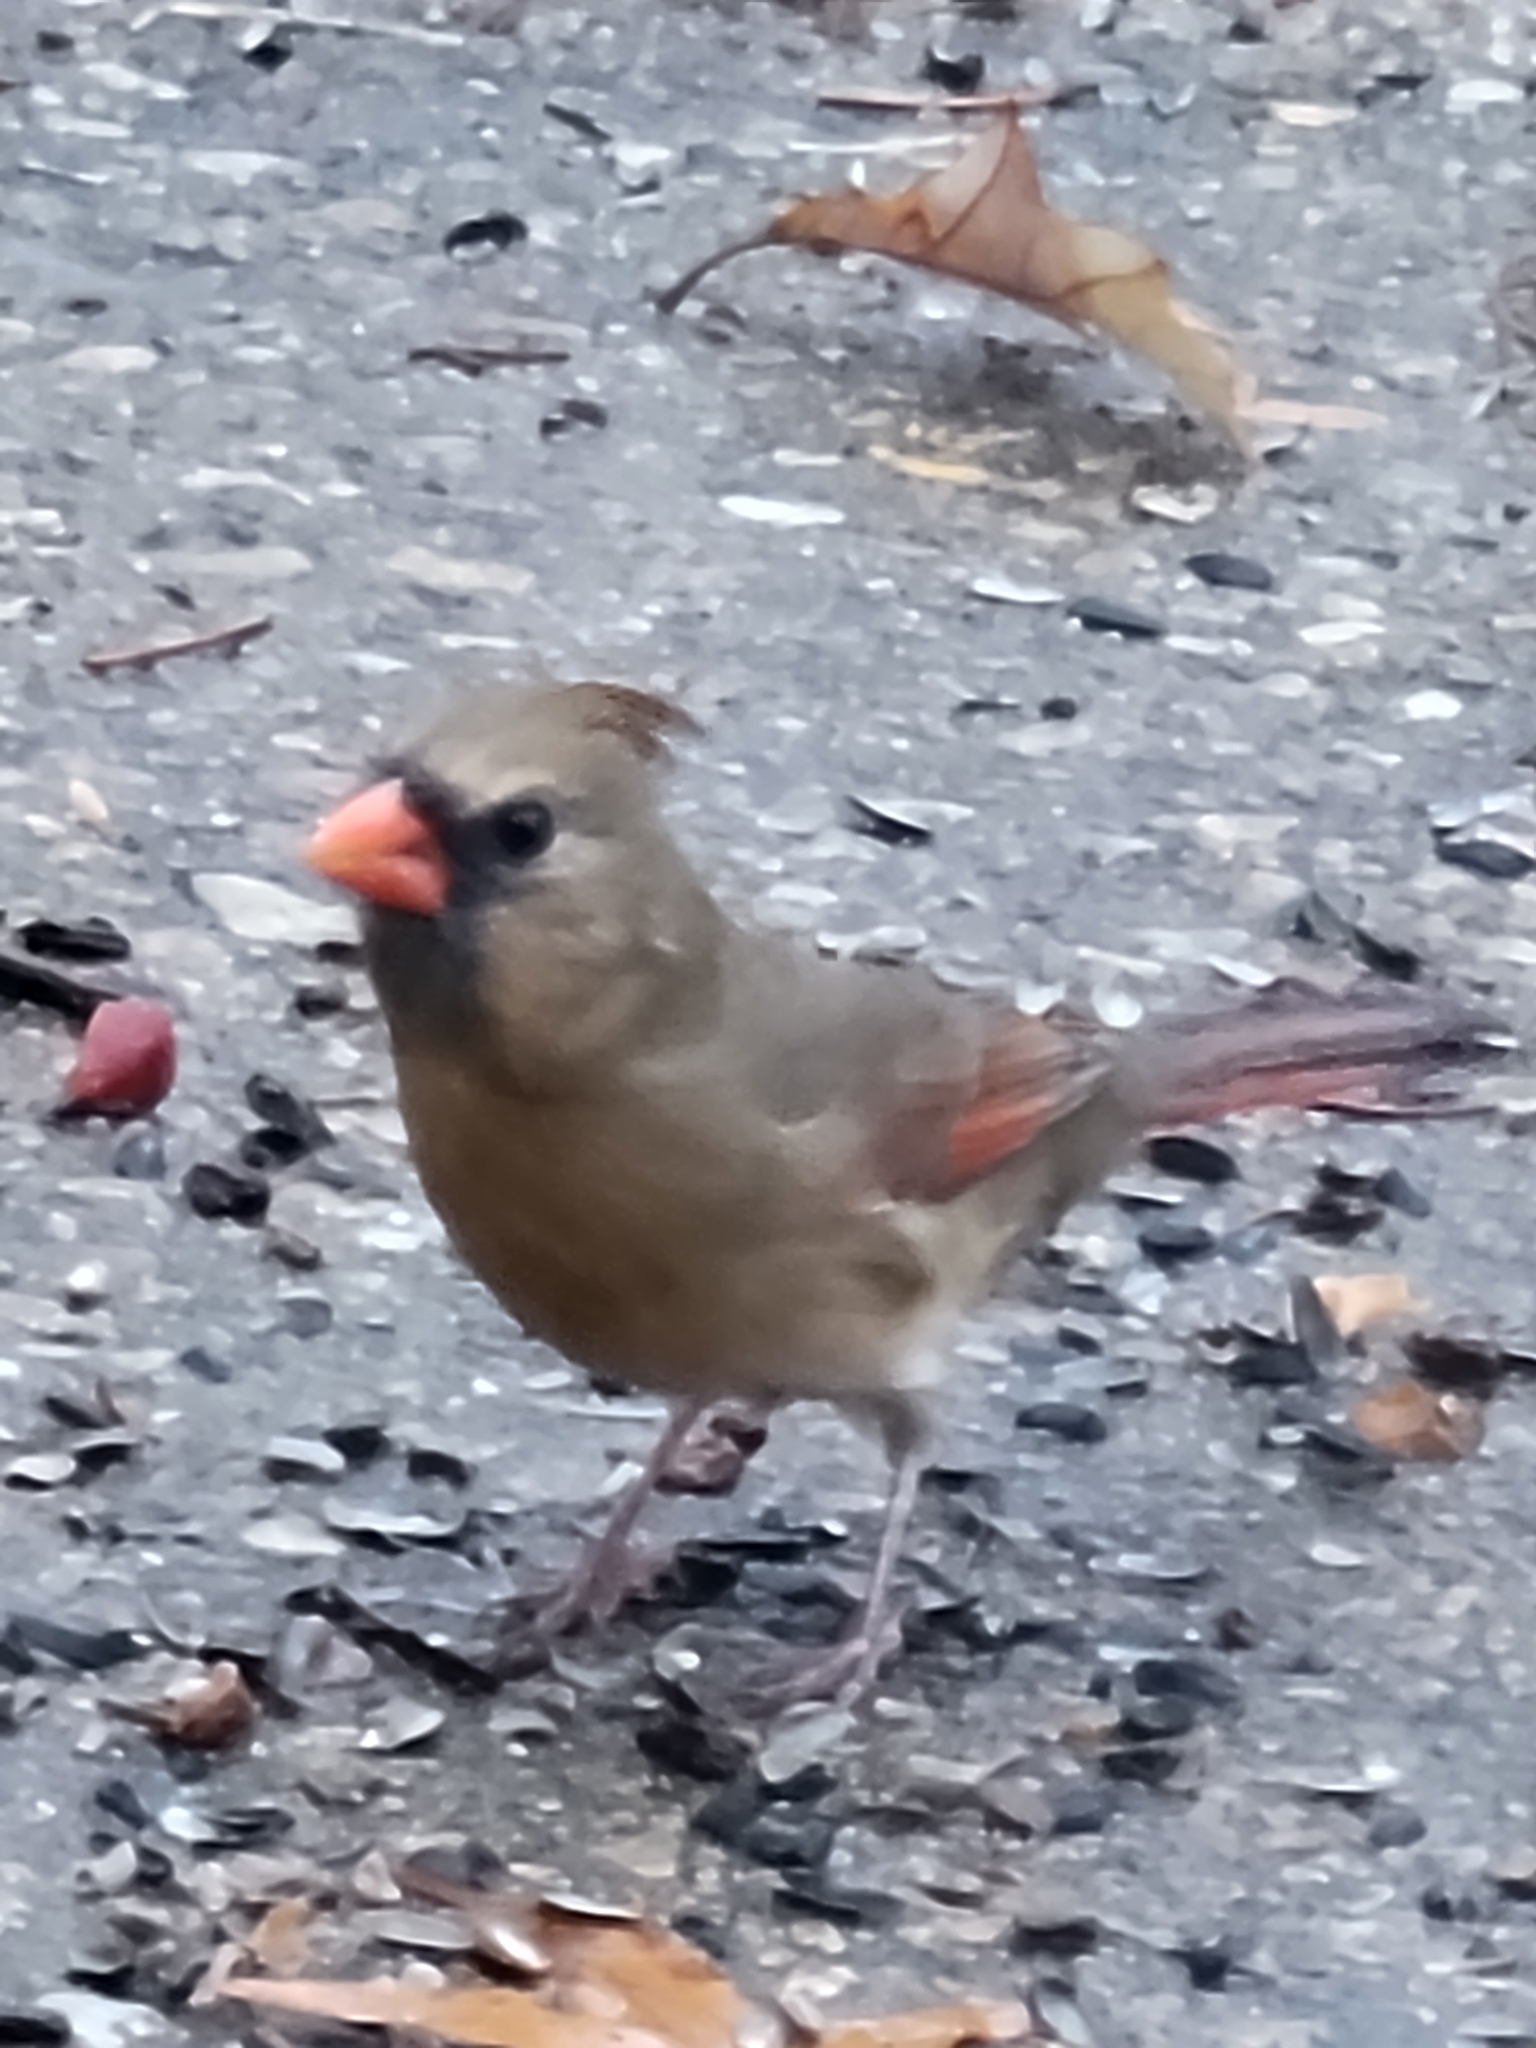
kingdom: Animalia
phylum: Chordata
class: Aves
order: Passeriformes
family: Cardinalidae
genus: Cardinalis
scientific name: Cardinalis cardinalis
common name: Northern cardinal
